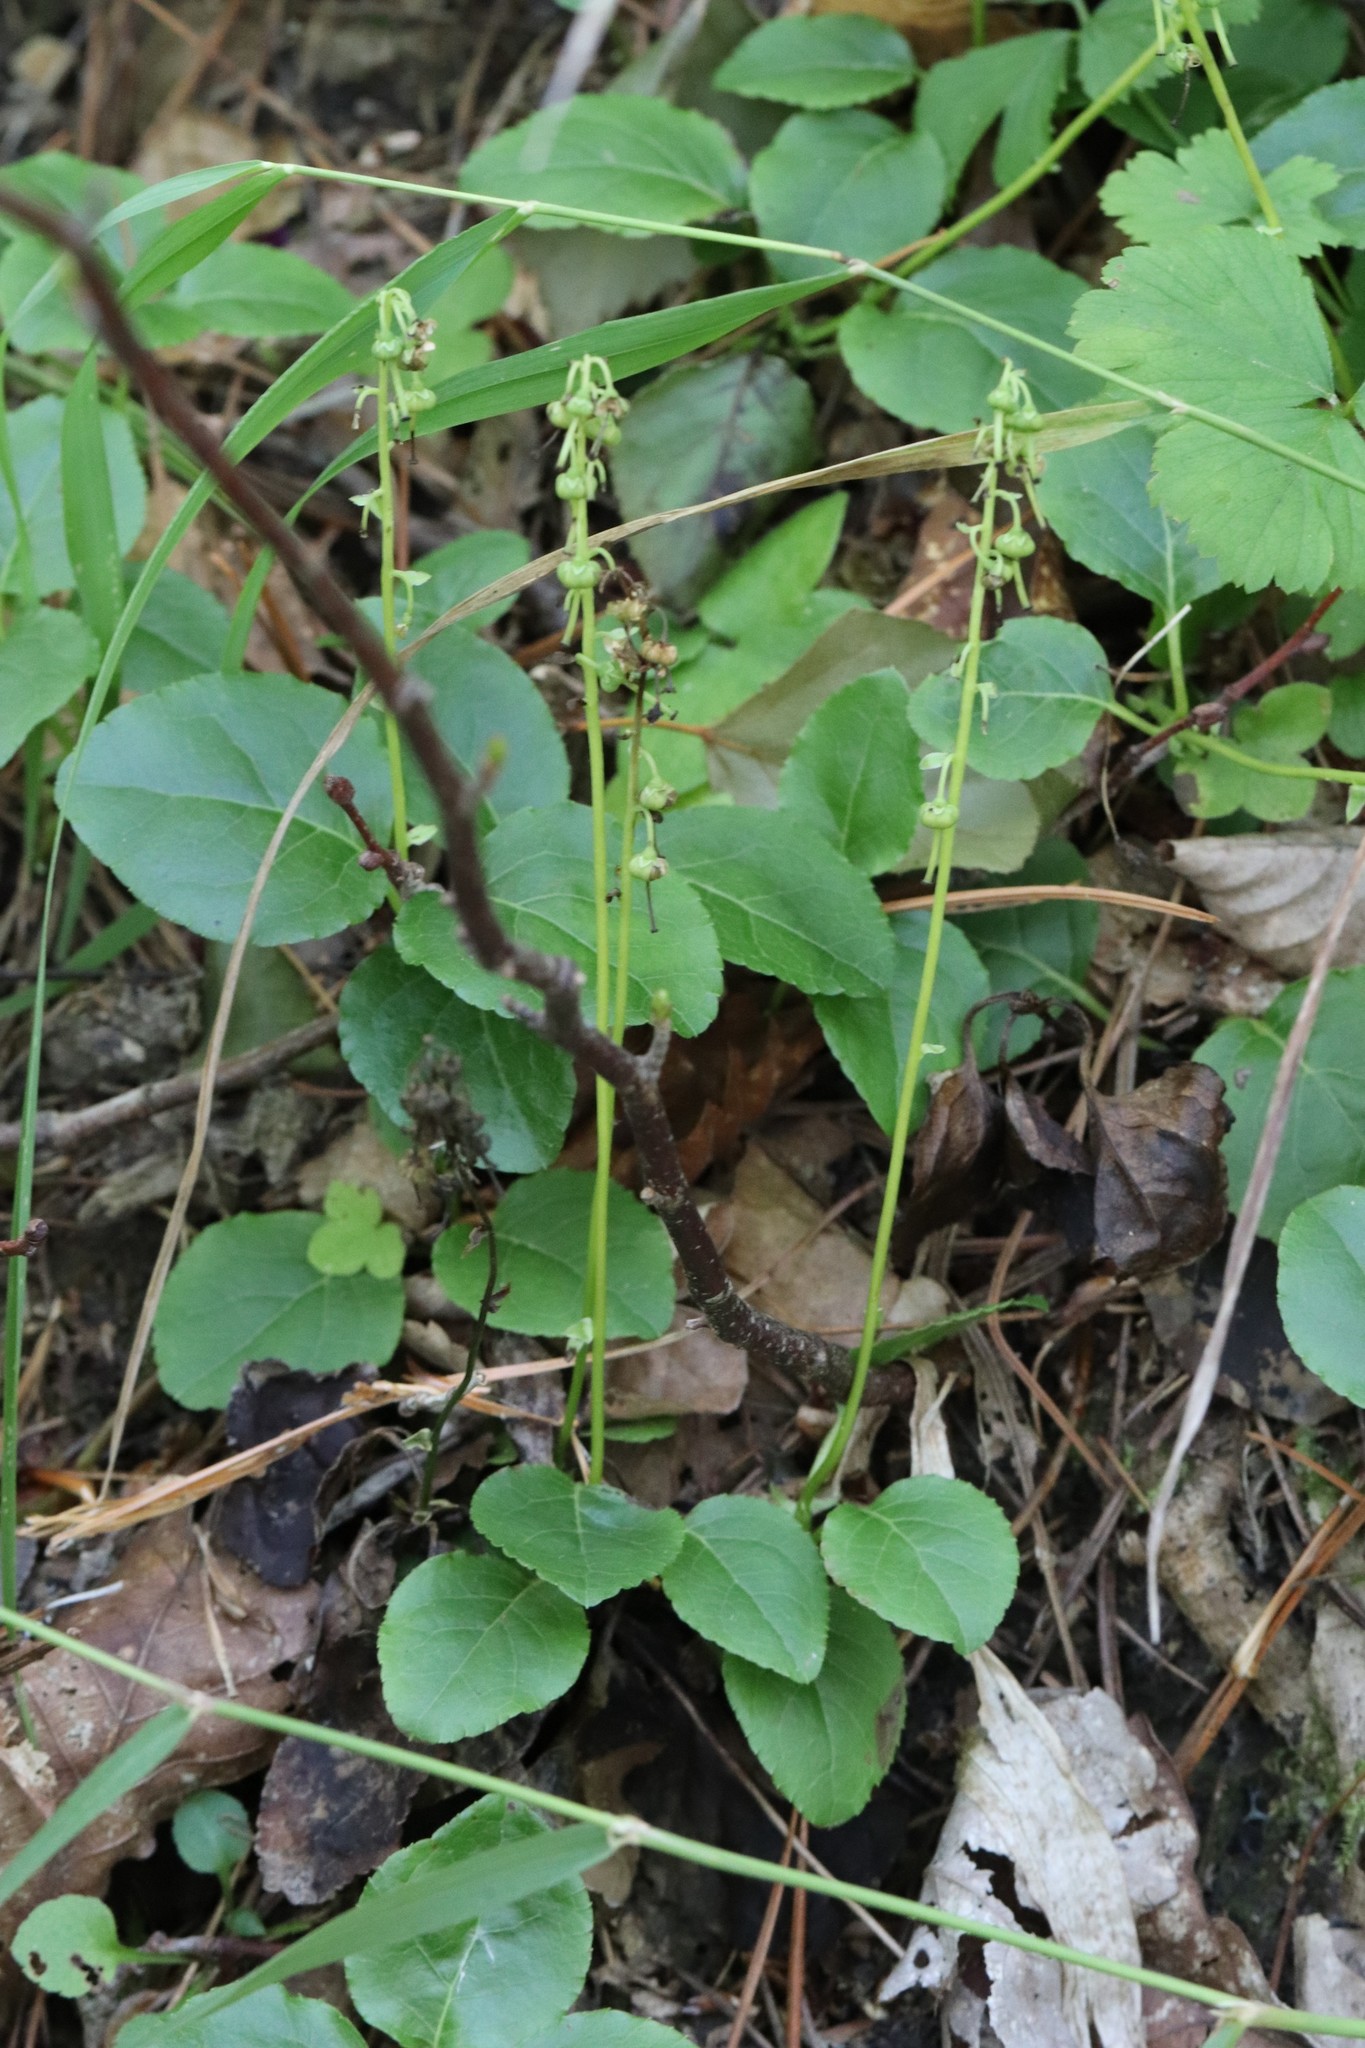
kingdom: Plantae
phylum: Tracheophyta
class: Magnoliopsida
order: Ericales
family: Ericaceae
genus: Orthilia
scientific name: Orthilia secunda
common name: One-sided orthilia
